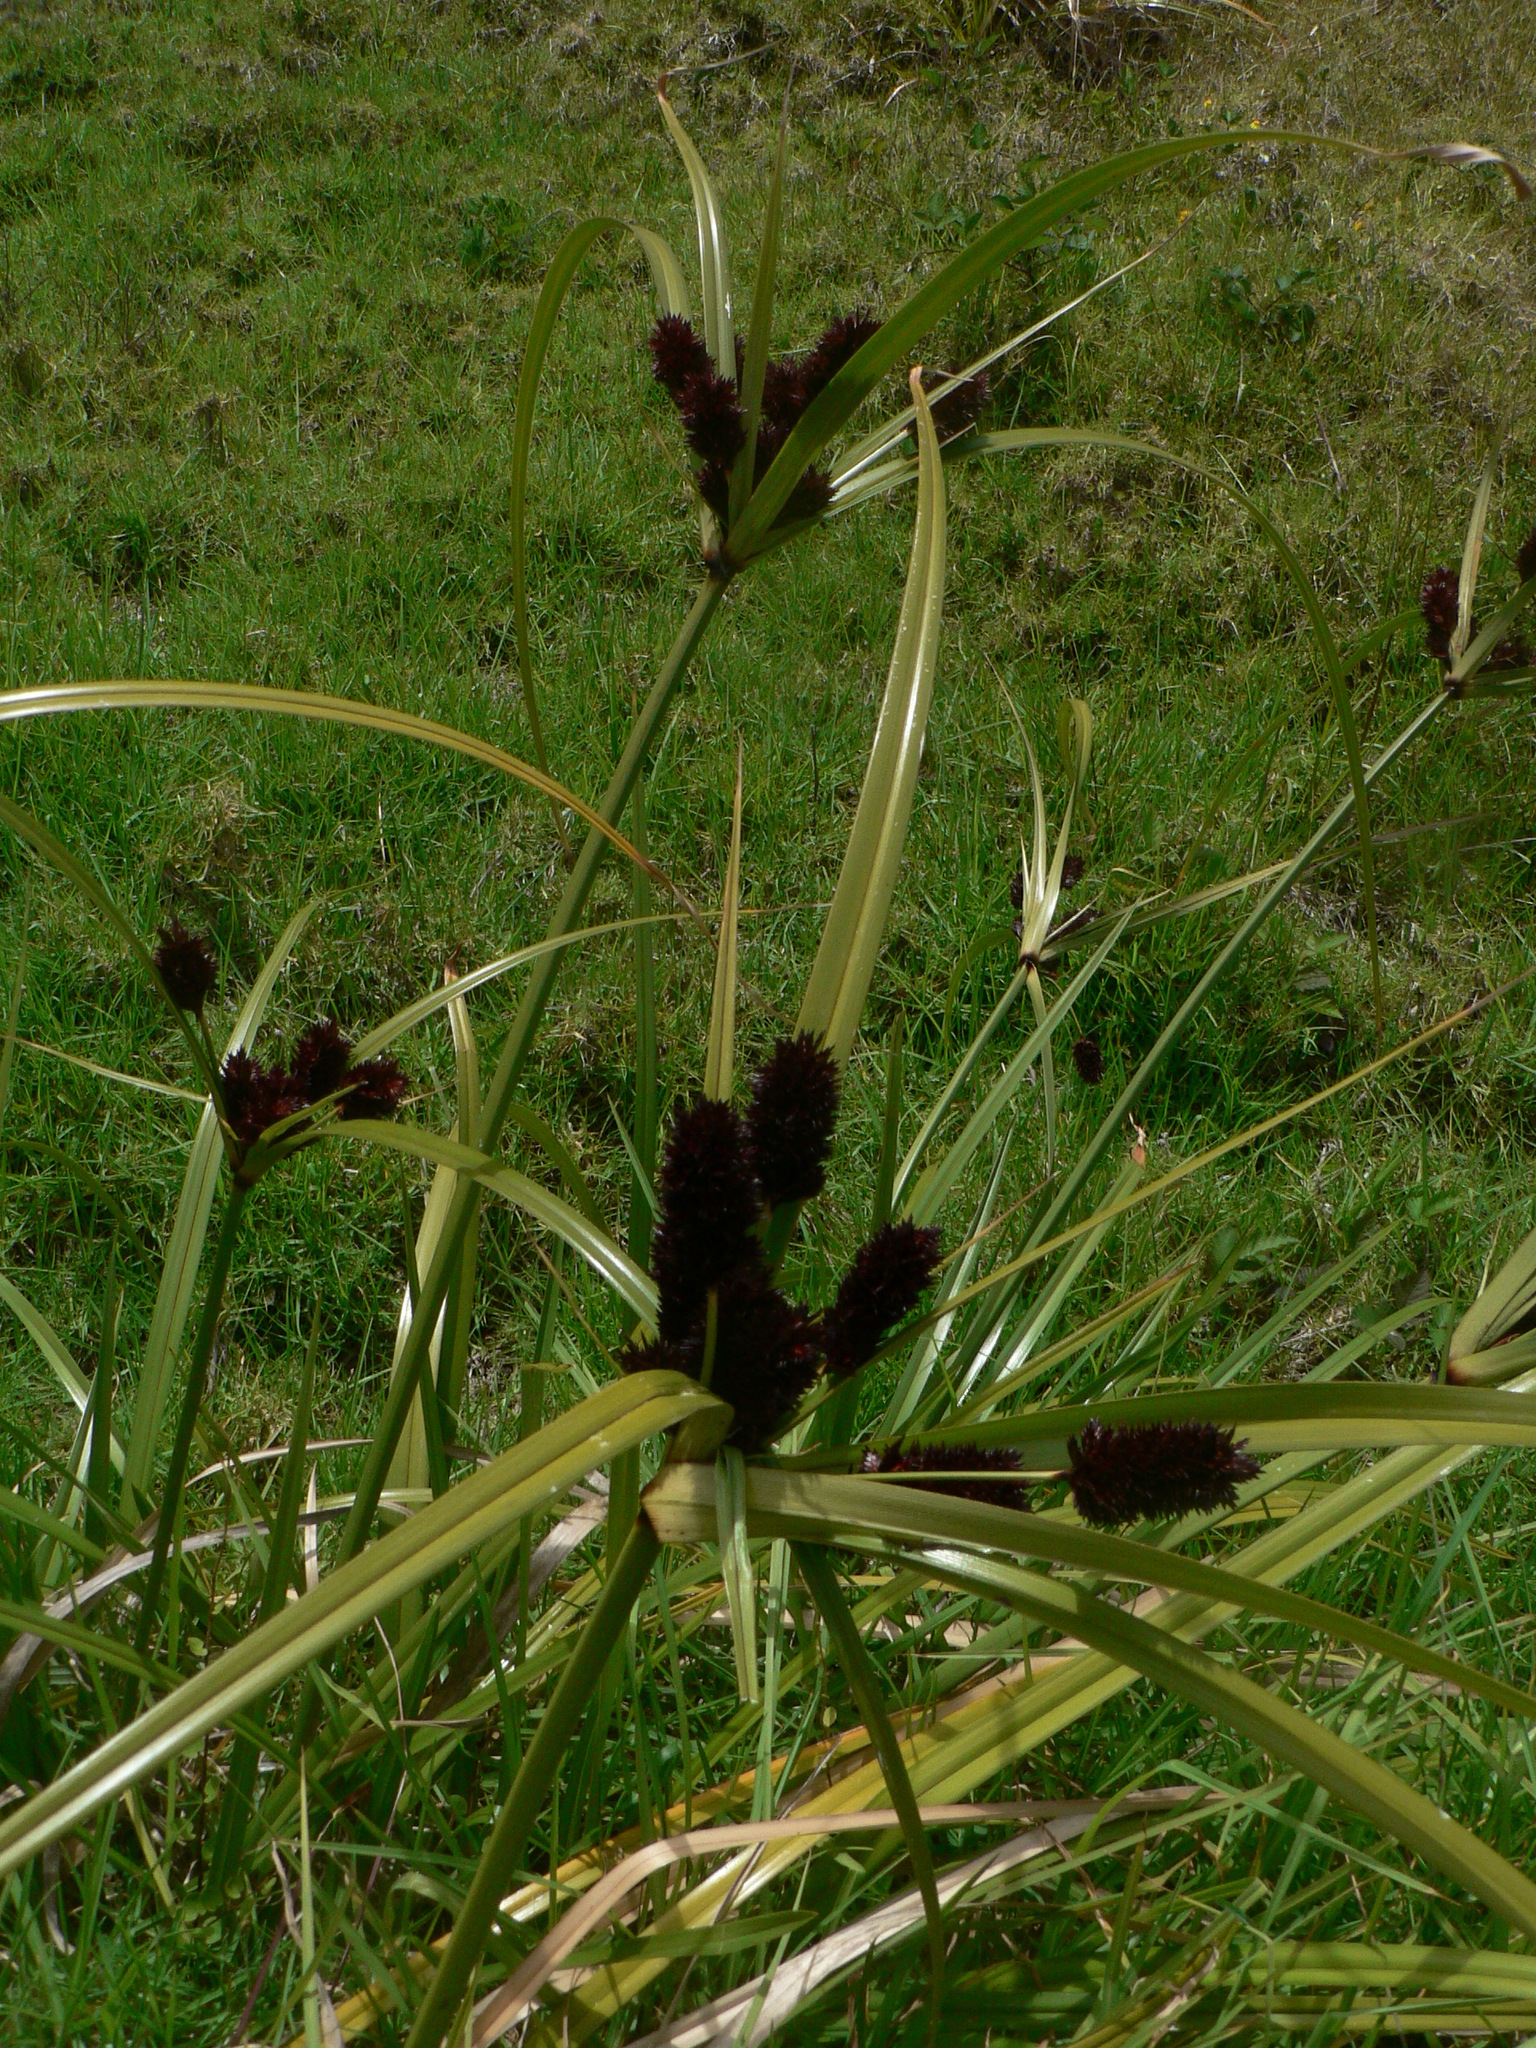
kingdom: Plantae
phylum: Tracheophyta
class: Liliopsida
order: Poales
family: Cyperaceae
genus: Cyperus
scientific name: Cyperus ustulatus
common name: Giant umbrella-sedge
